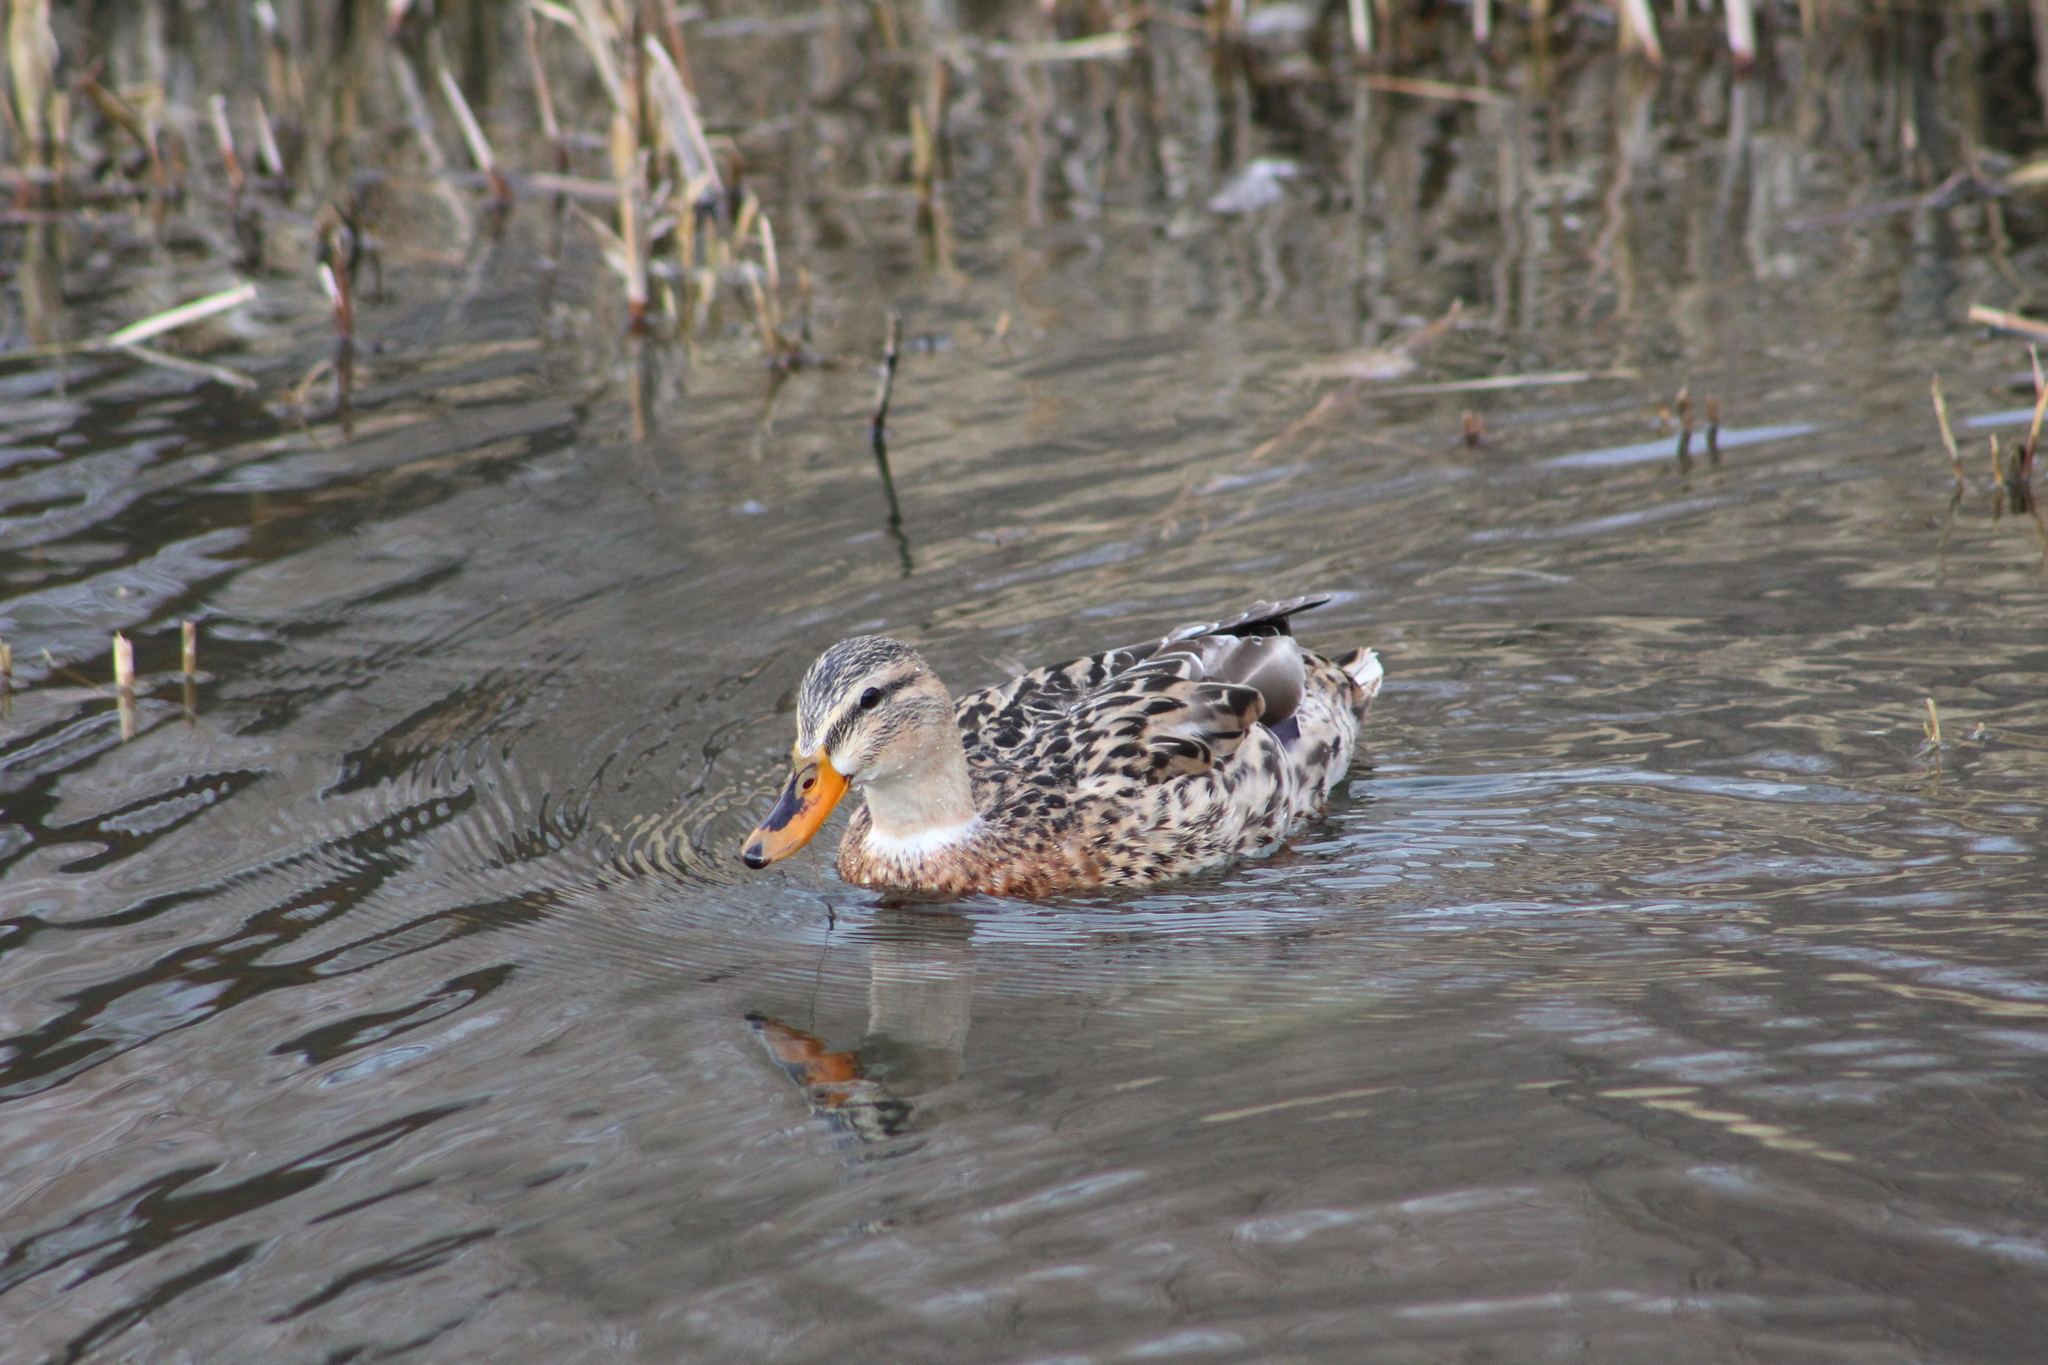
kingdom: Animalia
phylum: Chordata
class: Aves
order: Anseriformes
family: Anatidae
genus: Anas
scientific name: Anas platyrhynchos
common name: Mallard
